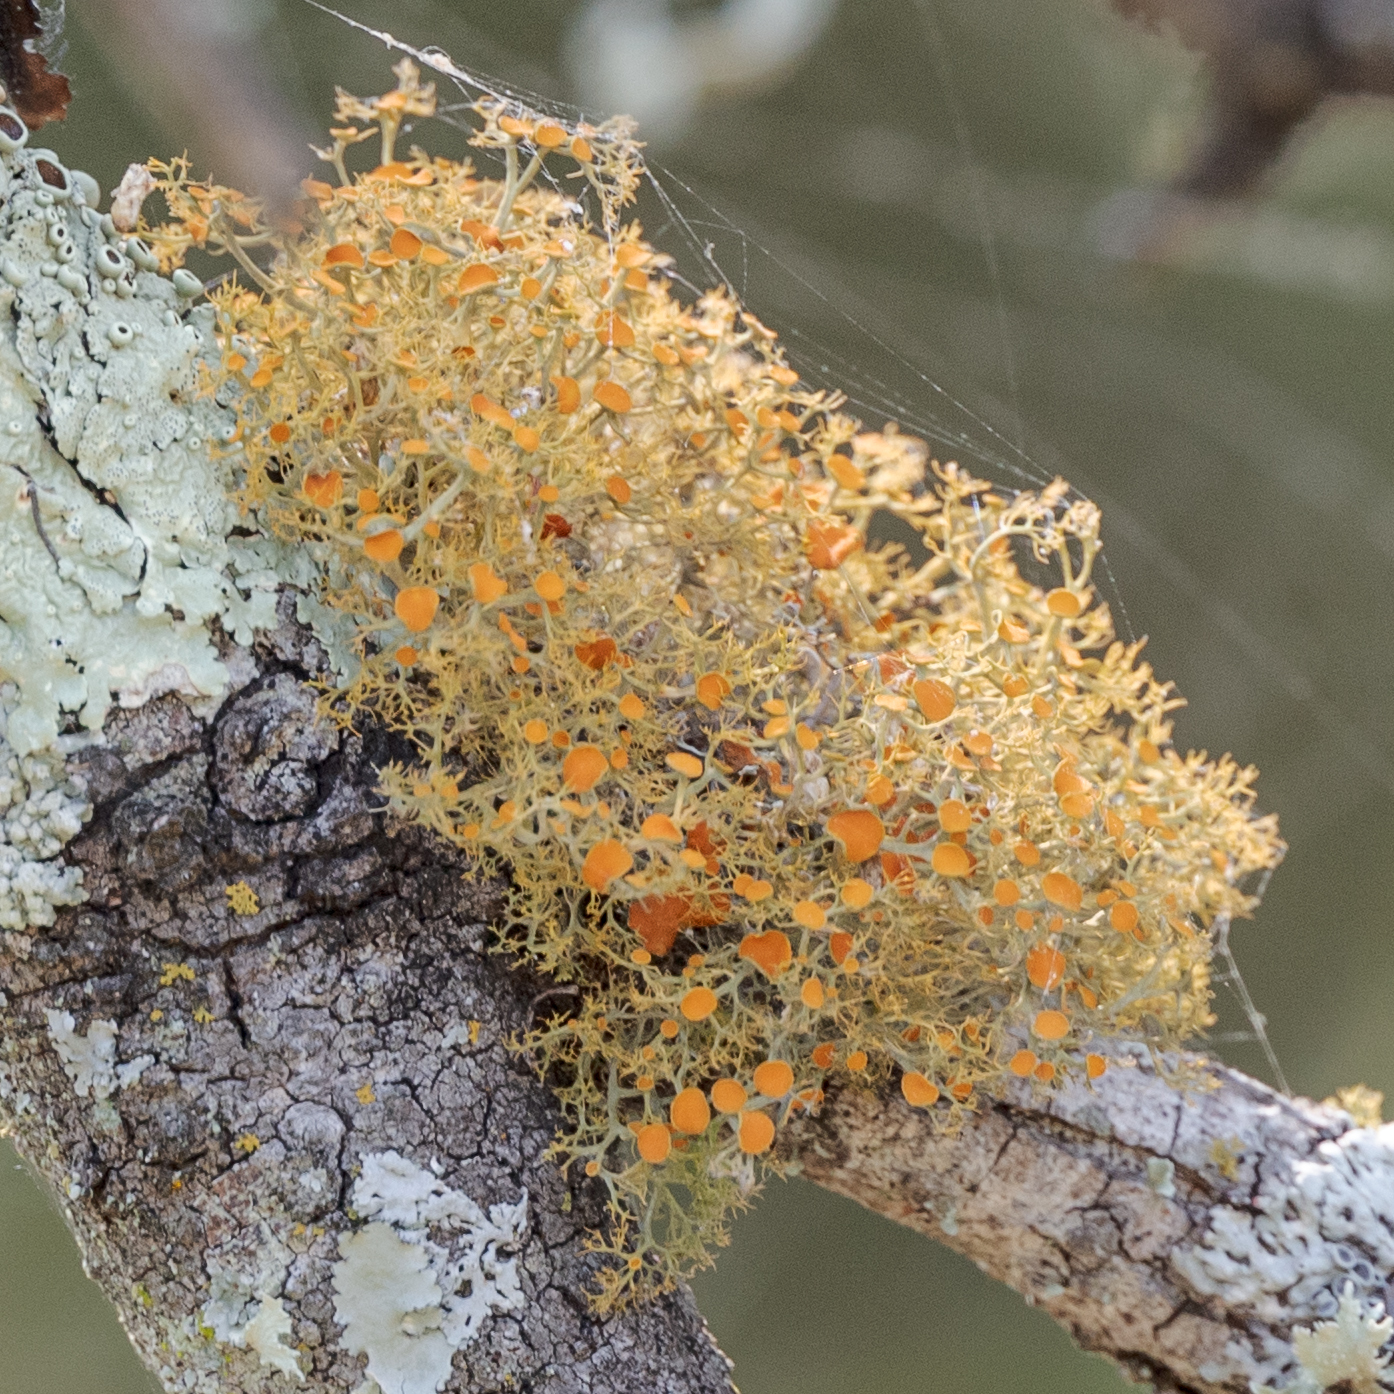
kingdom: Fungi
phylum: Ascomycota
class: Lecanoromycetes
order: Teloschistales
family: Teloschistaceae
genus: Teloschistes
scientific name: Teloschistes exilis
